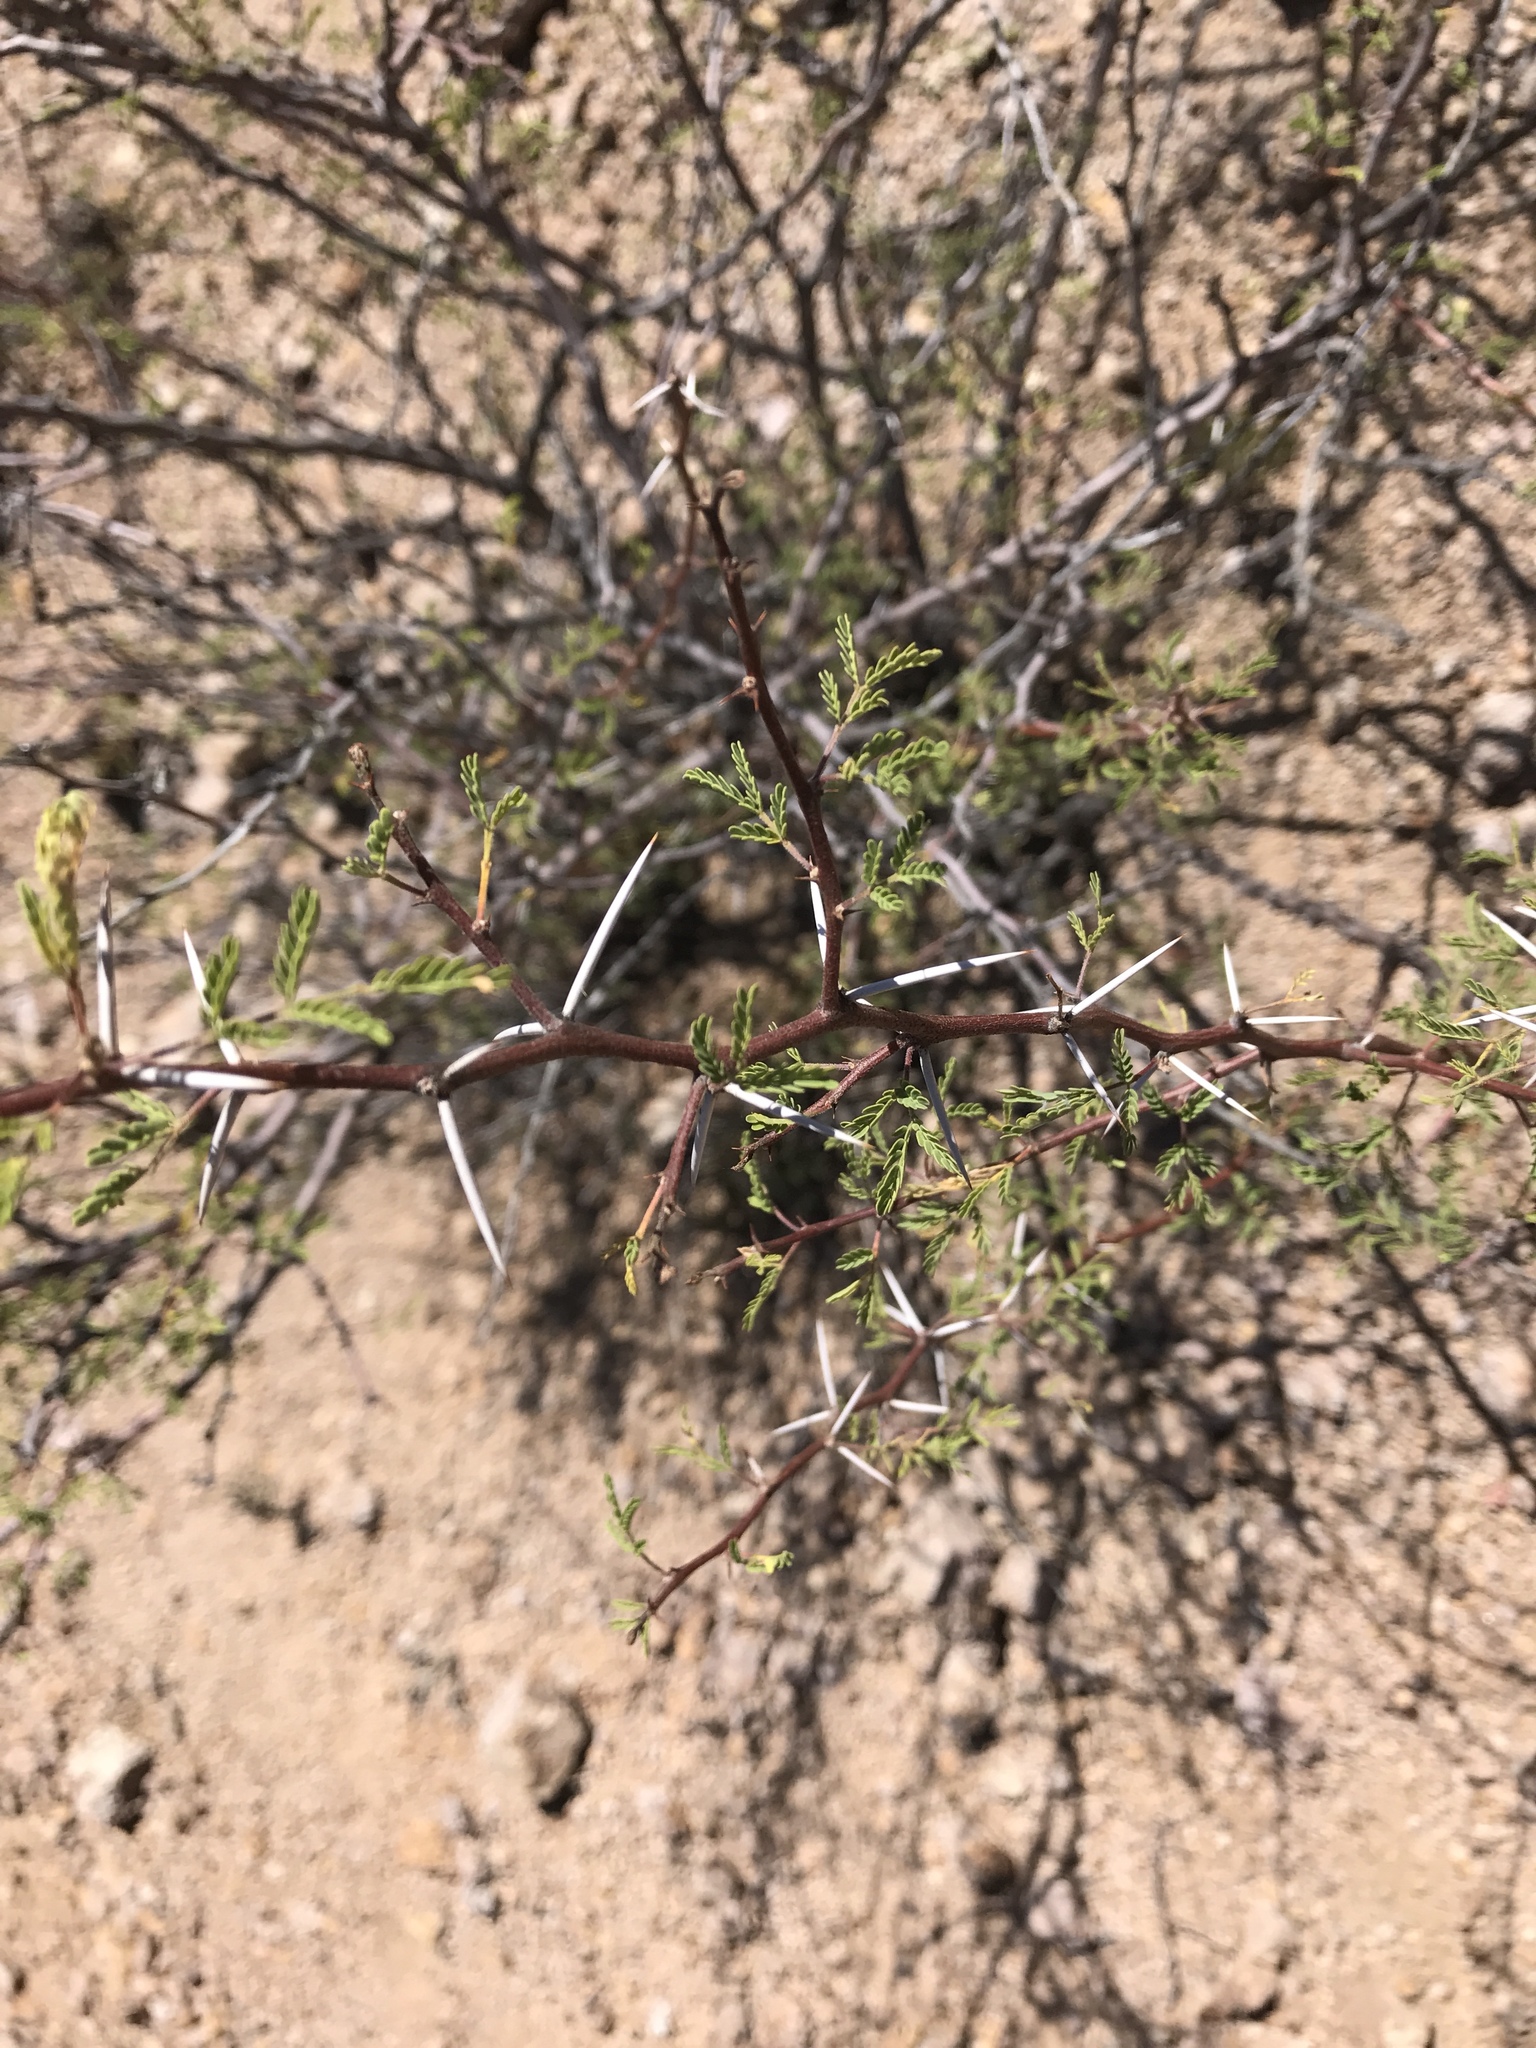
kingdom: Plantae
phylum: Tracheophyta
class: Magnoliopsida
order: Fabales
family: Fabaceae
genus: Vachellia
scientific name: Vachellia constricta
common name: Mescat acacia
